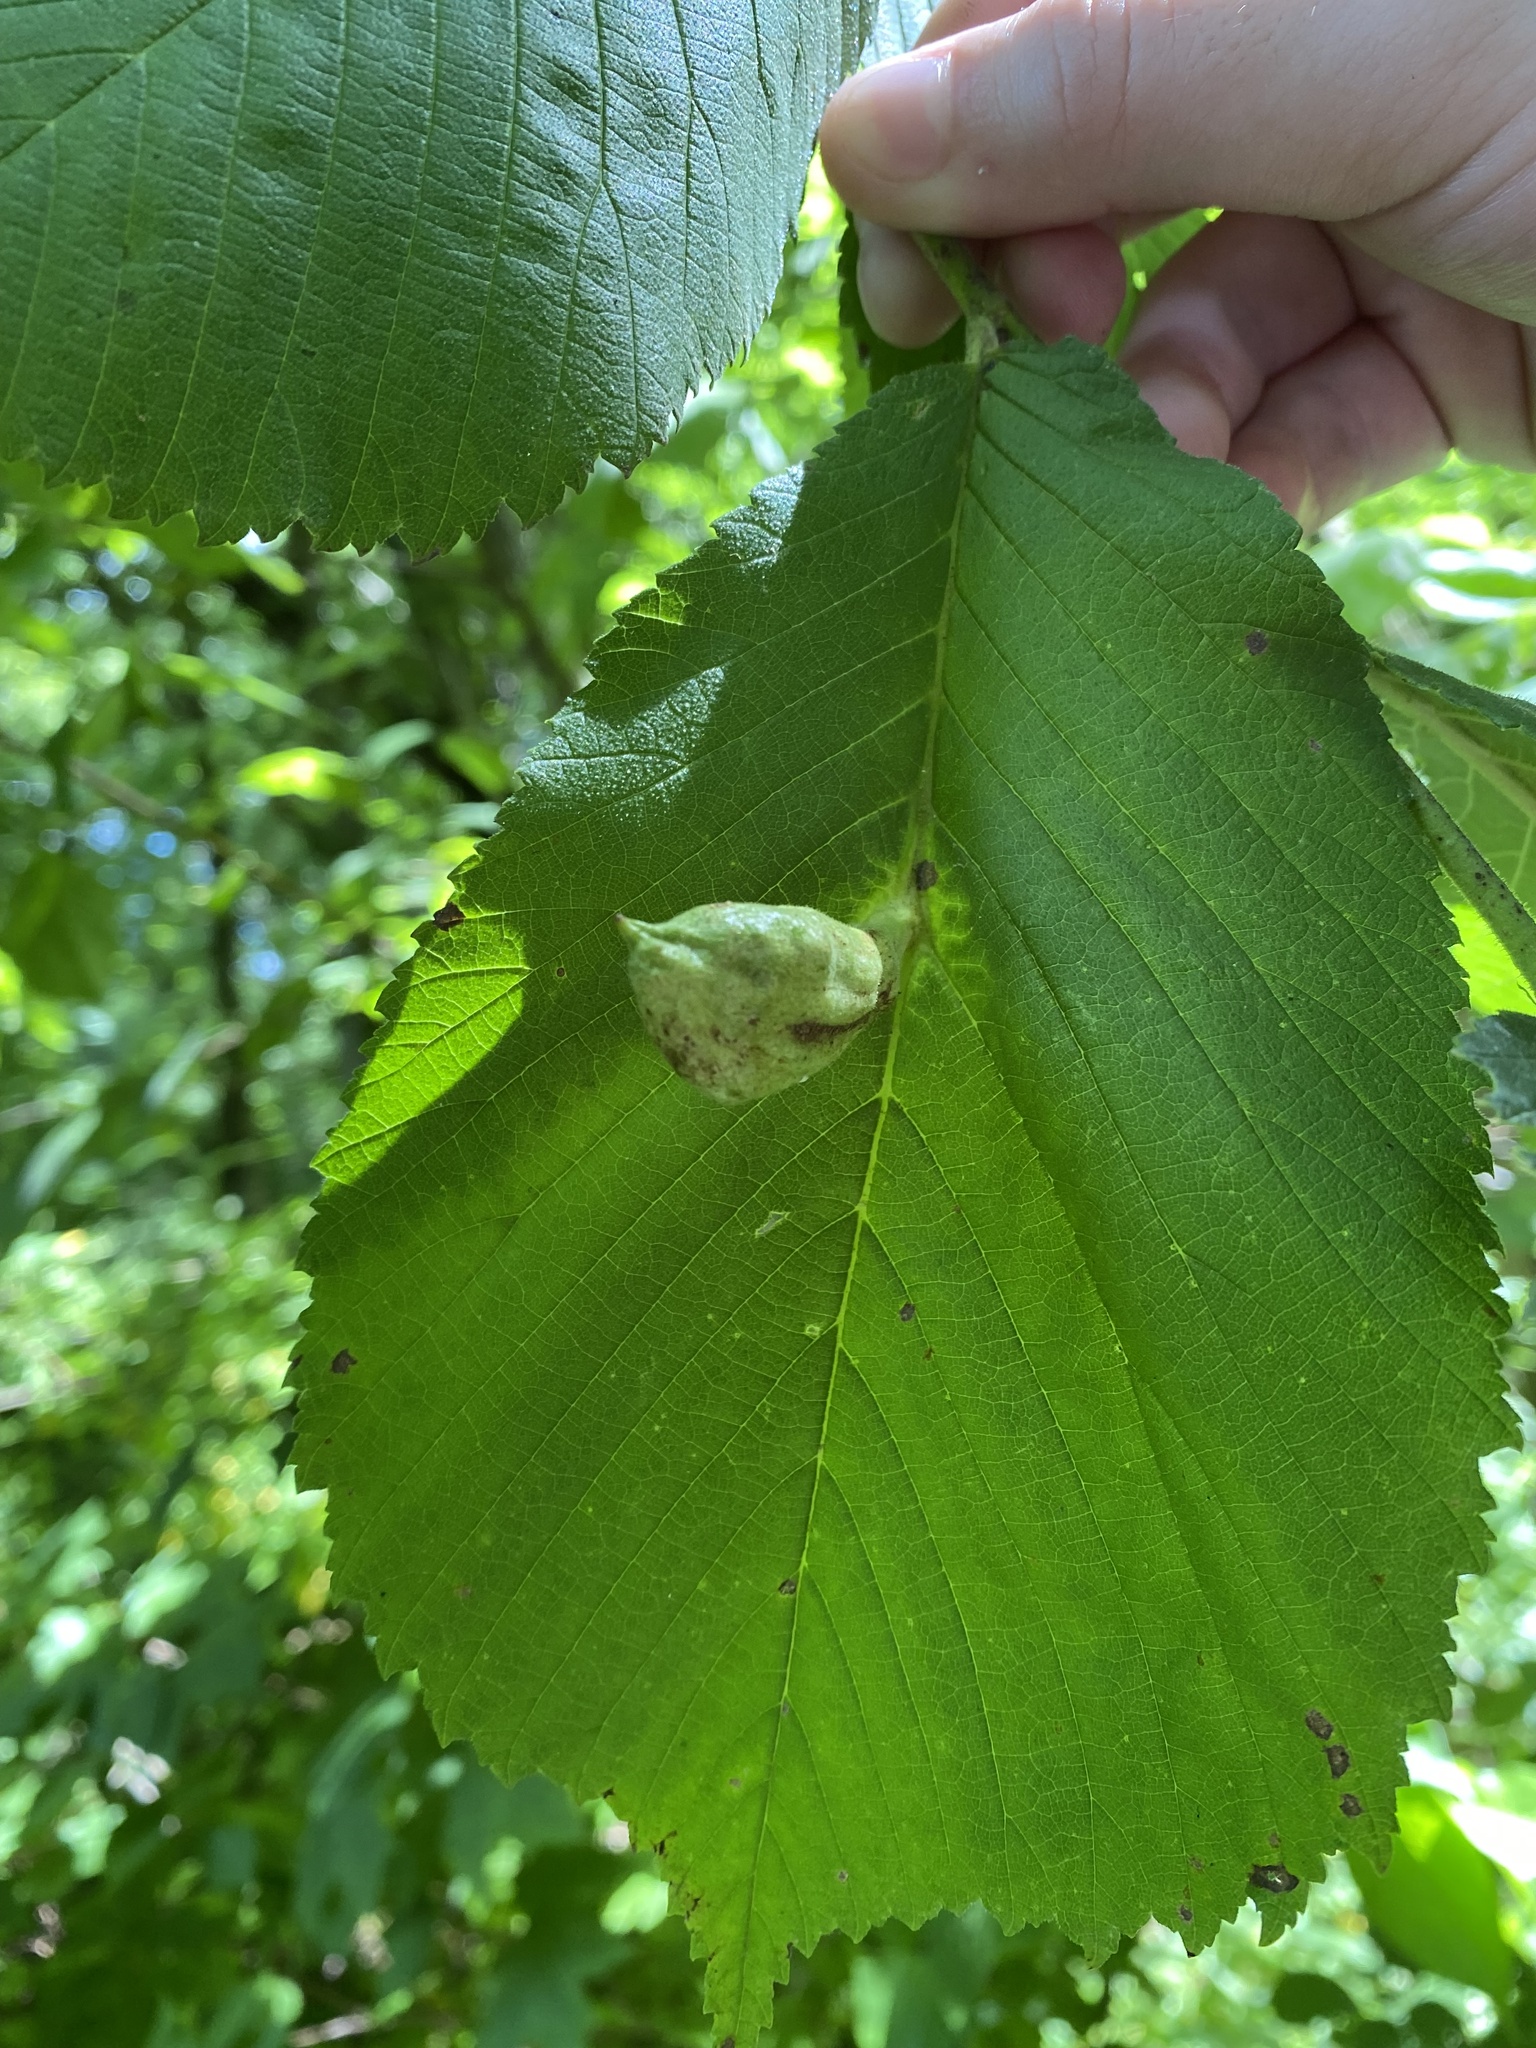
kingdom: Animalia
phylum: Arthropoda
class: Insecta
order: Hemiptera
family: Aphididae
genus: Kaltenbachiella
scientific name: Kaltenbachiella ulmifusa
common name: Elm pouchgall aphid
